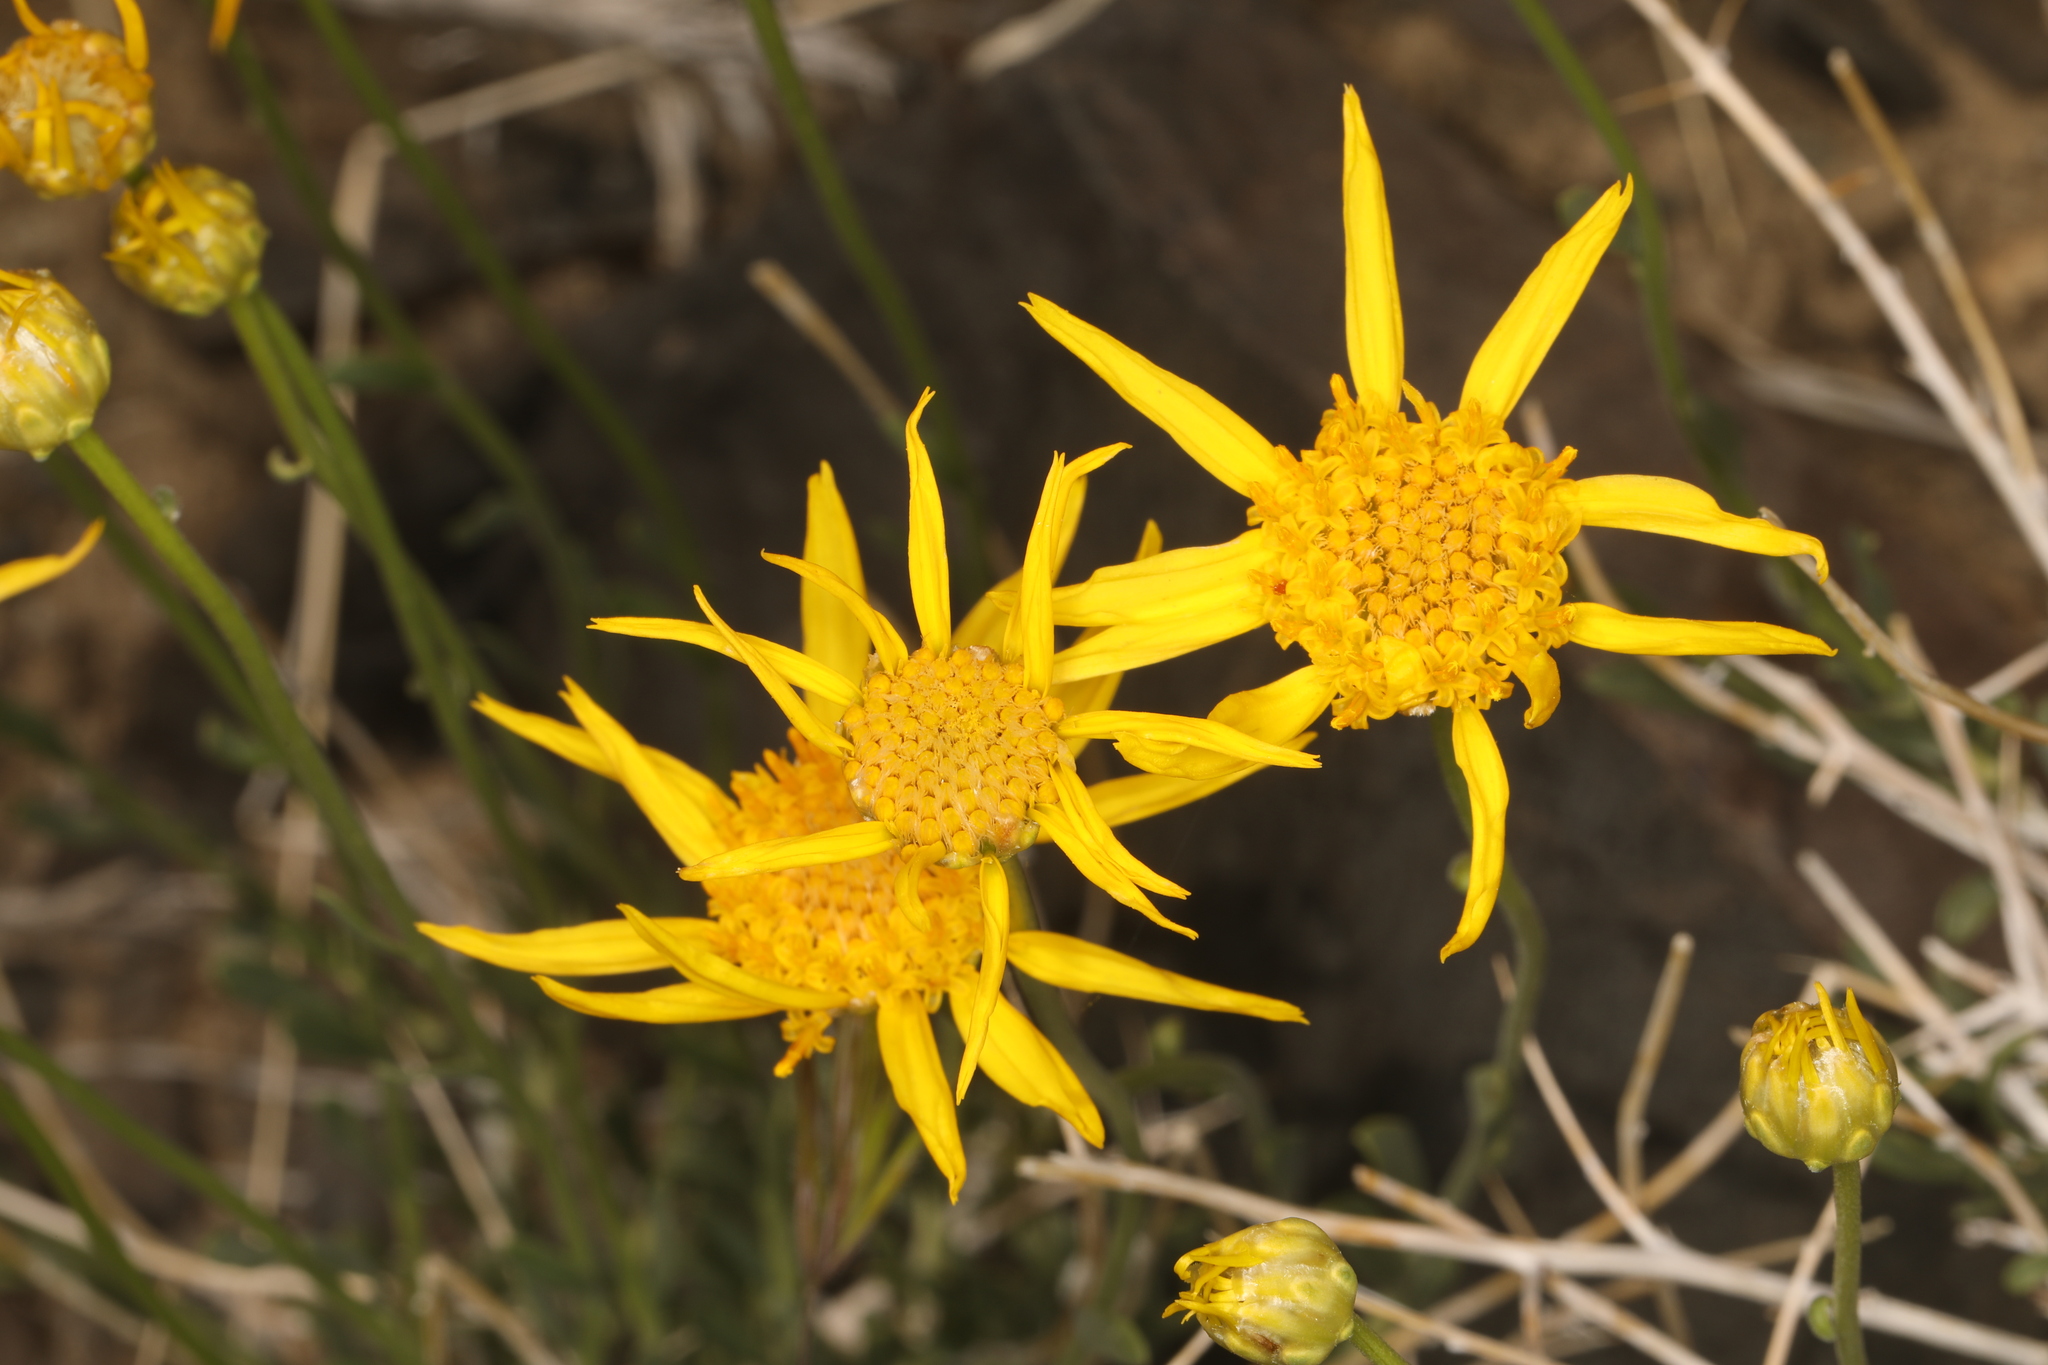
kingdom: Plantae
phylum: Tracheophyta
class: Magnoliopsida
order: Asterales
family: Asteraceae
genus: Acamptopappus
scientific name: Acamptopappus shockleyi
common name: Shockley's goldenhead
